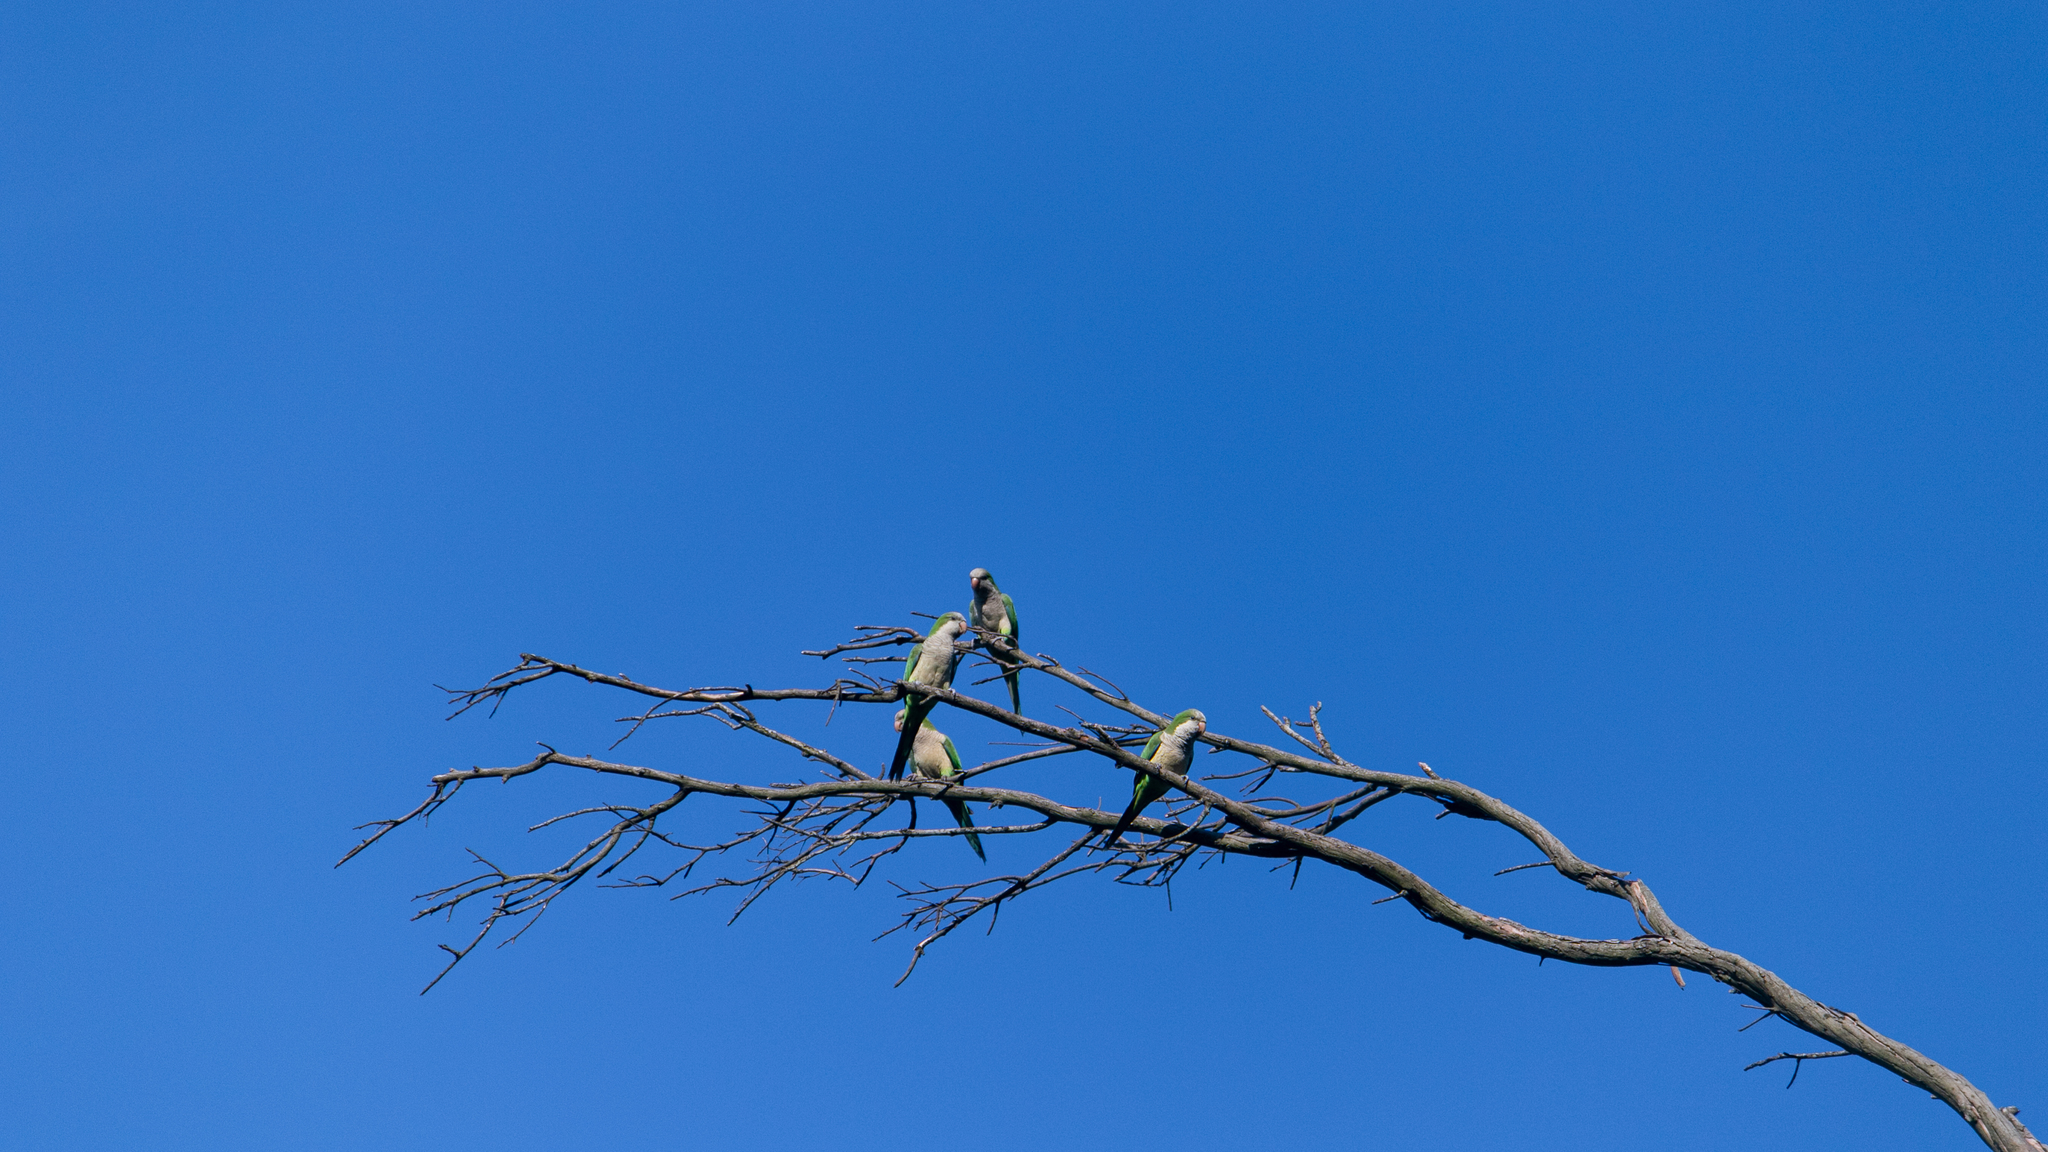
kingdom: Animalia
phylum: Chordata
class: Aves
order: Psittaciformes
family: Psittacidae
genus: Myiopsitta
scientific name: Myiopsitta monachus
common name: Monk parakeet
